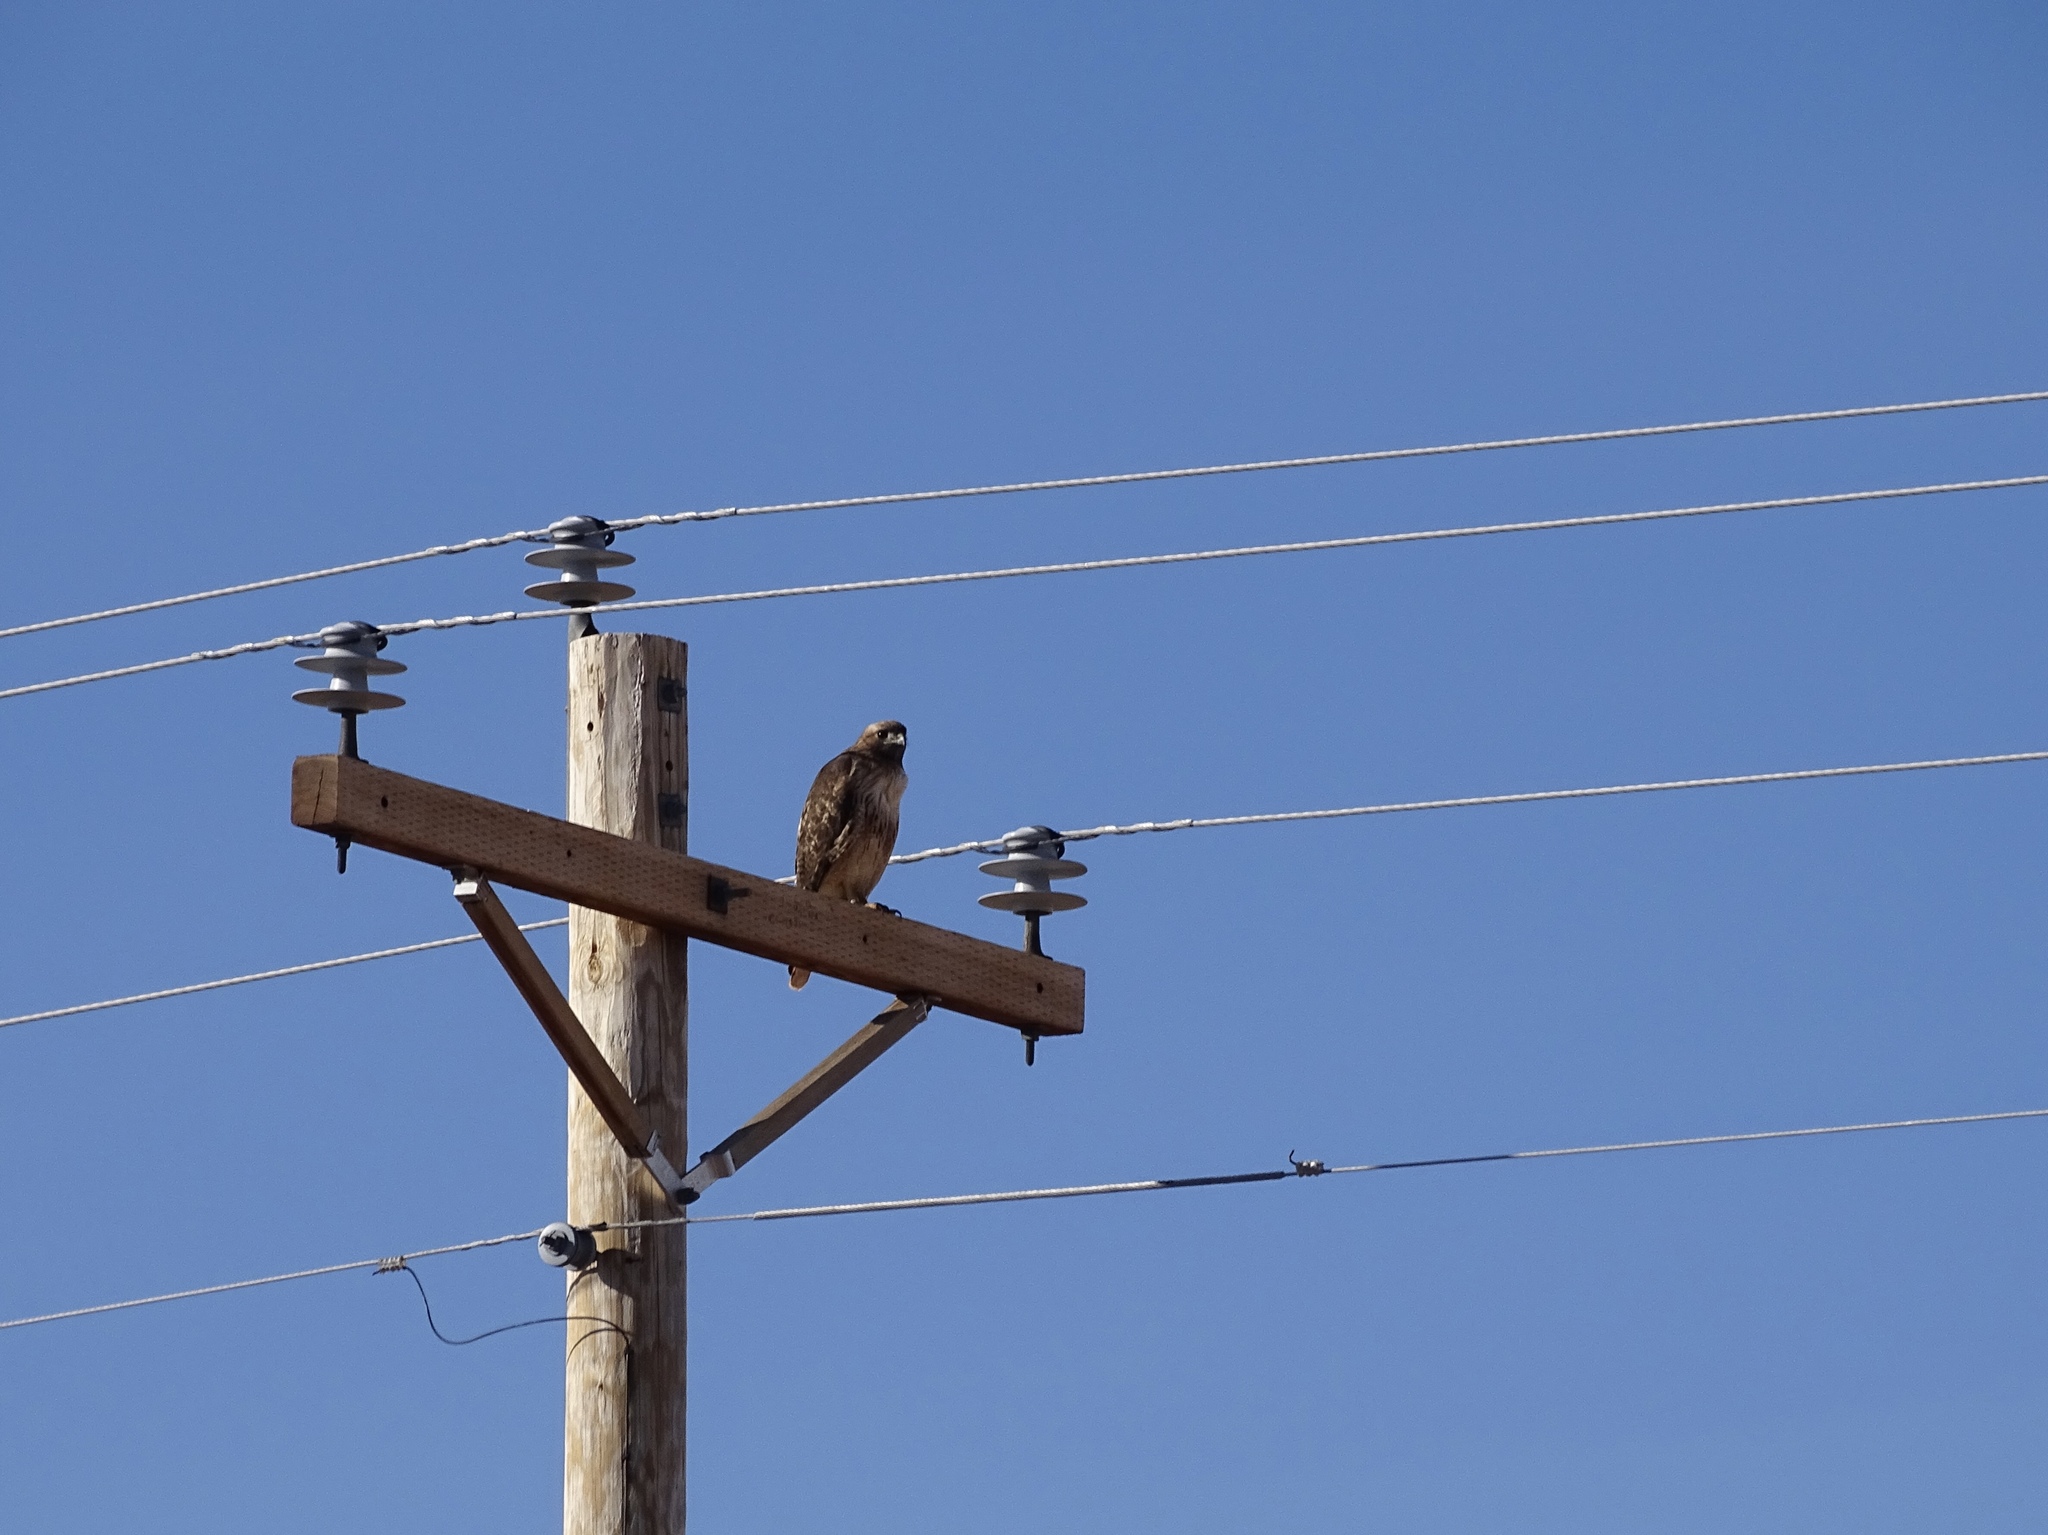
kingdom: Animalia
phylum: Chordata
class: Aves
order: Accipitriformes
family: Accipitridae
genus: Buteo
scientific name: Buteo jamaicensis
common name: Red-tailed hawk
